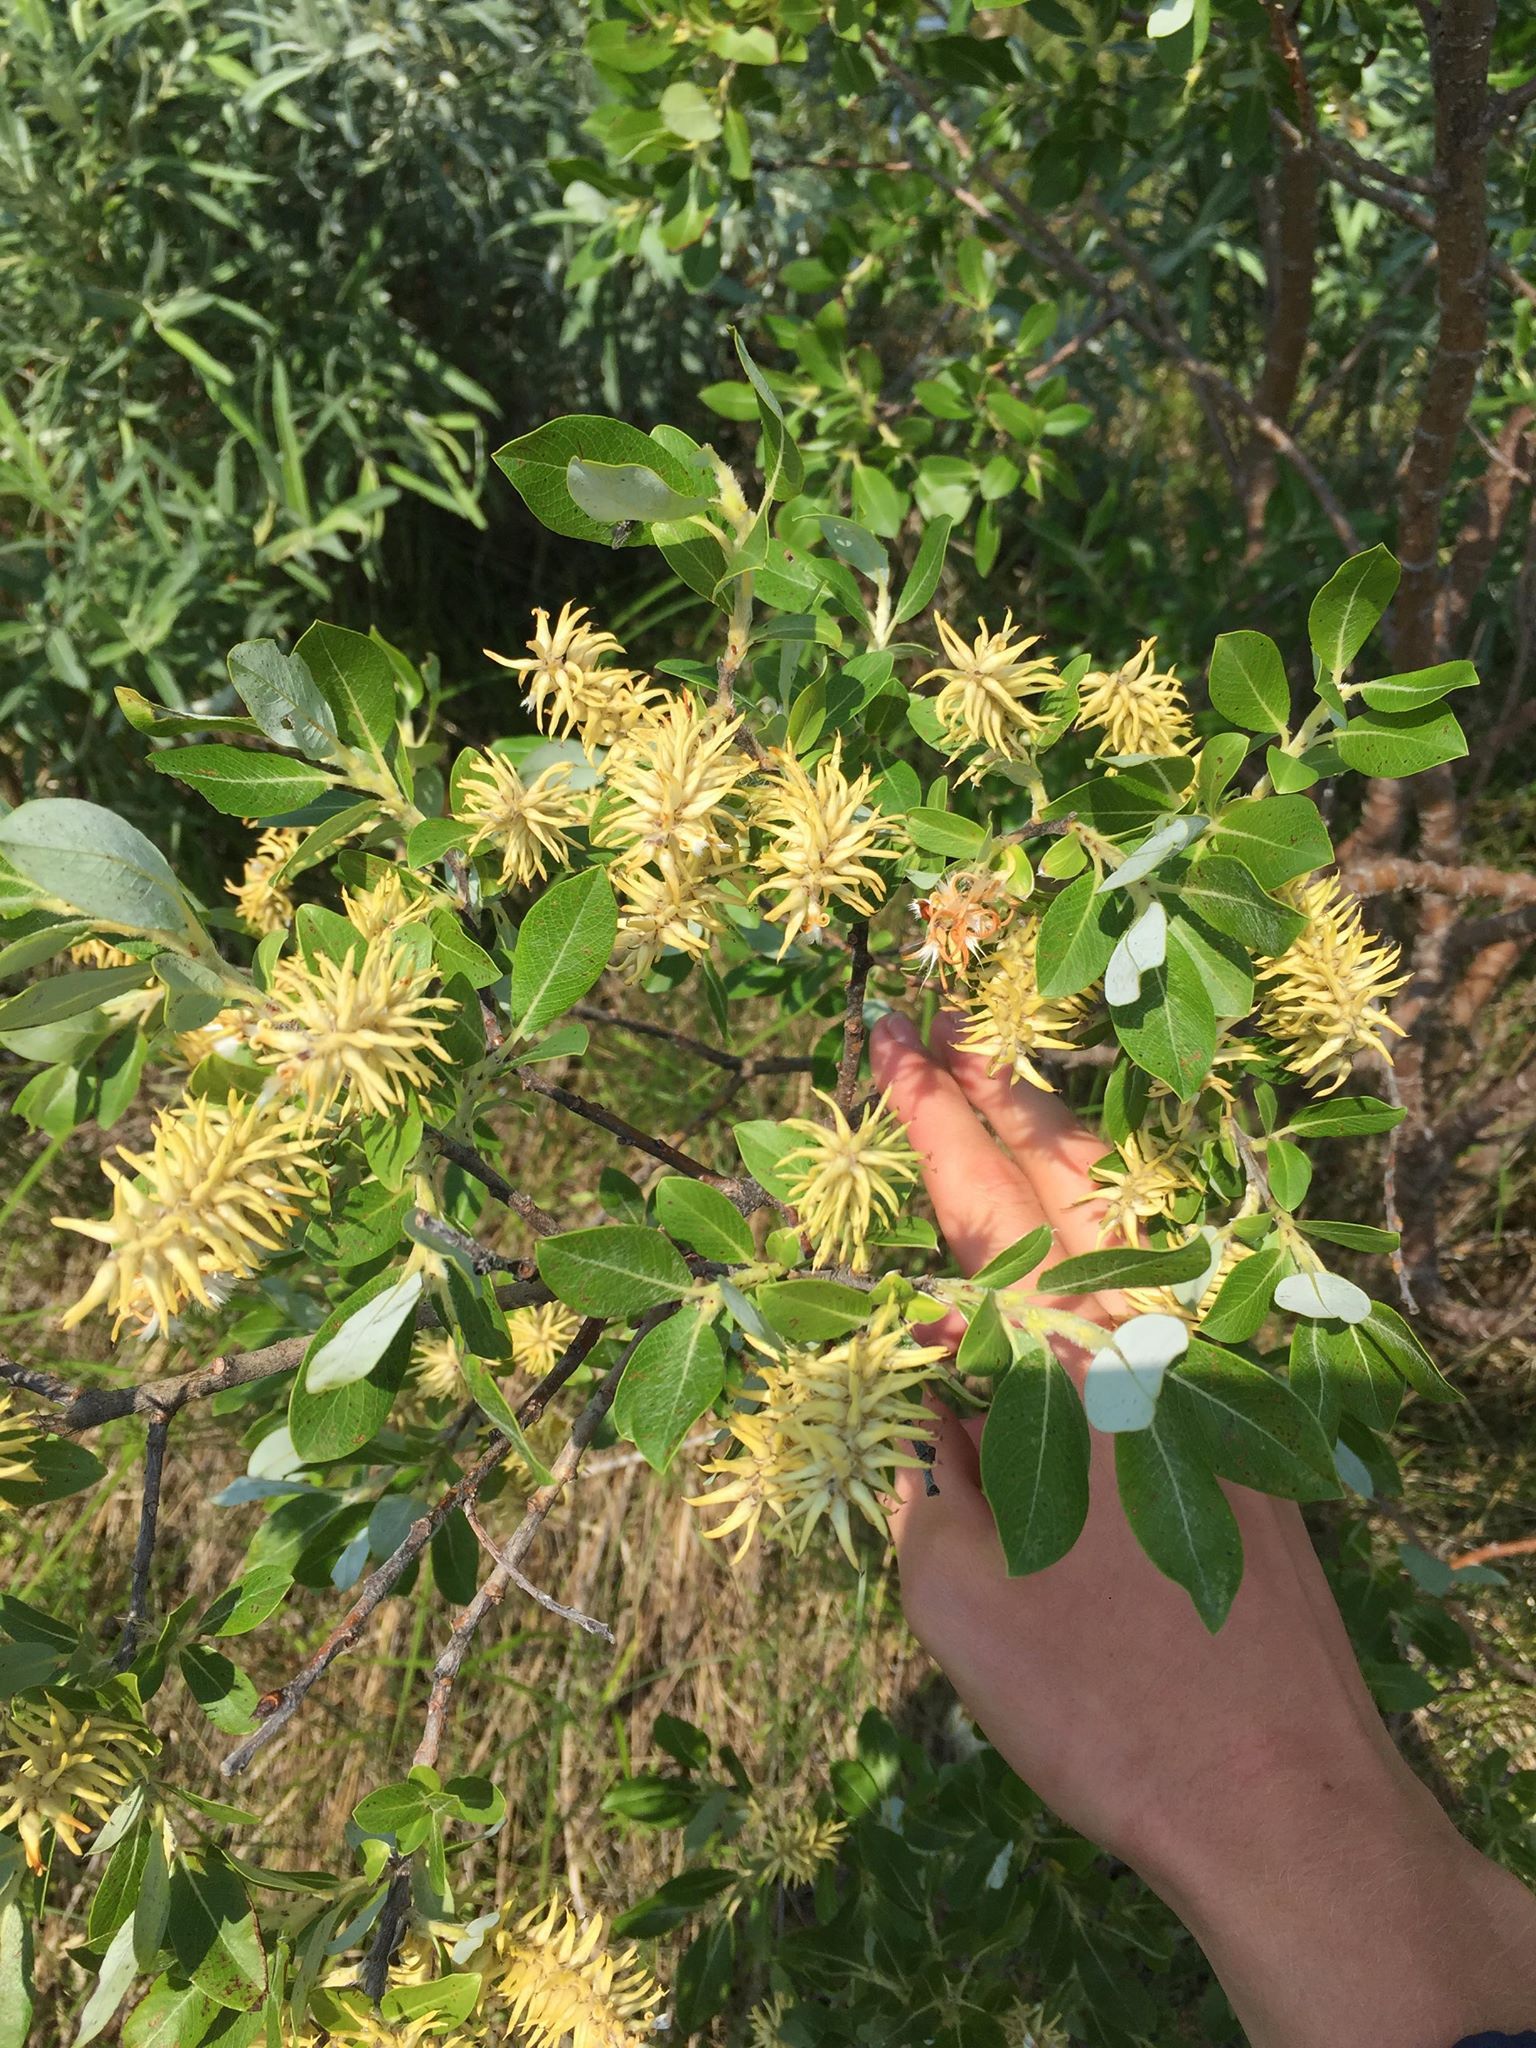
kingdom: Plantae
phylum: Tracheophyta
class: Magnoliopsida
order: Malpighiales
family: Salicaceae
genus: Salix
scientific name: Salix planifolia
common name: Mountain willow
